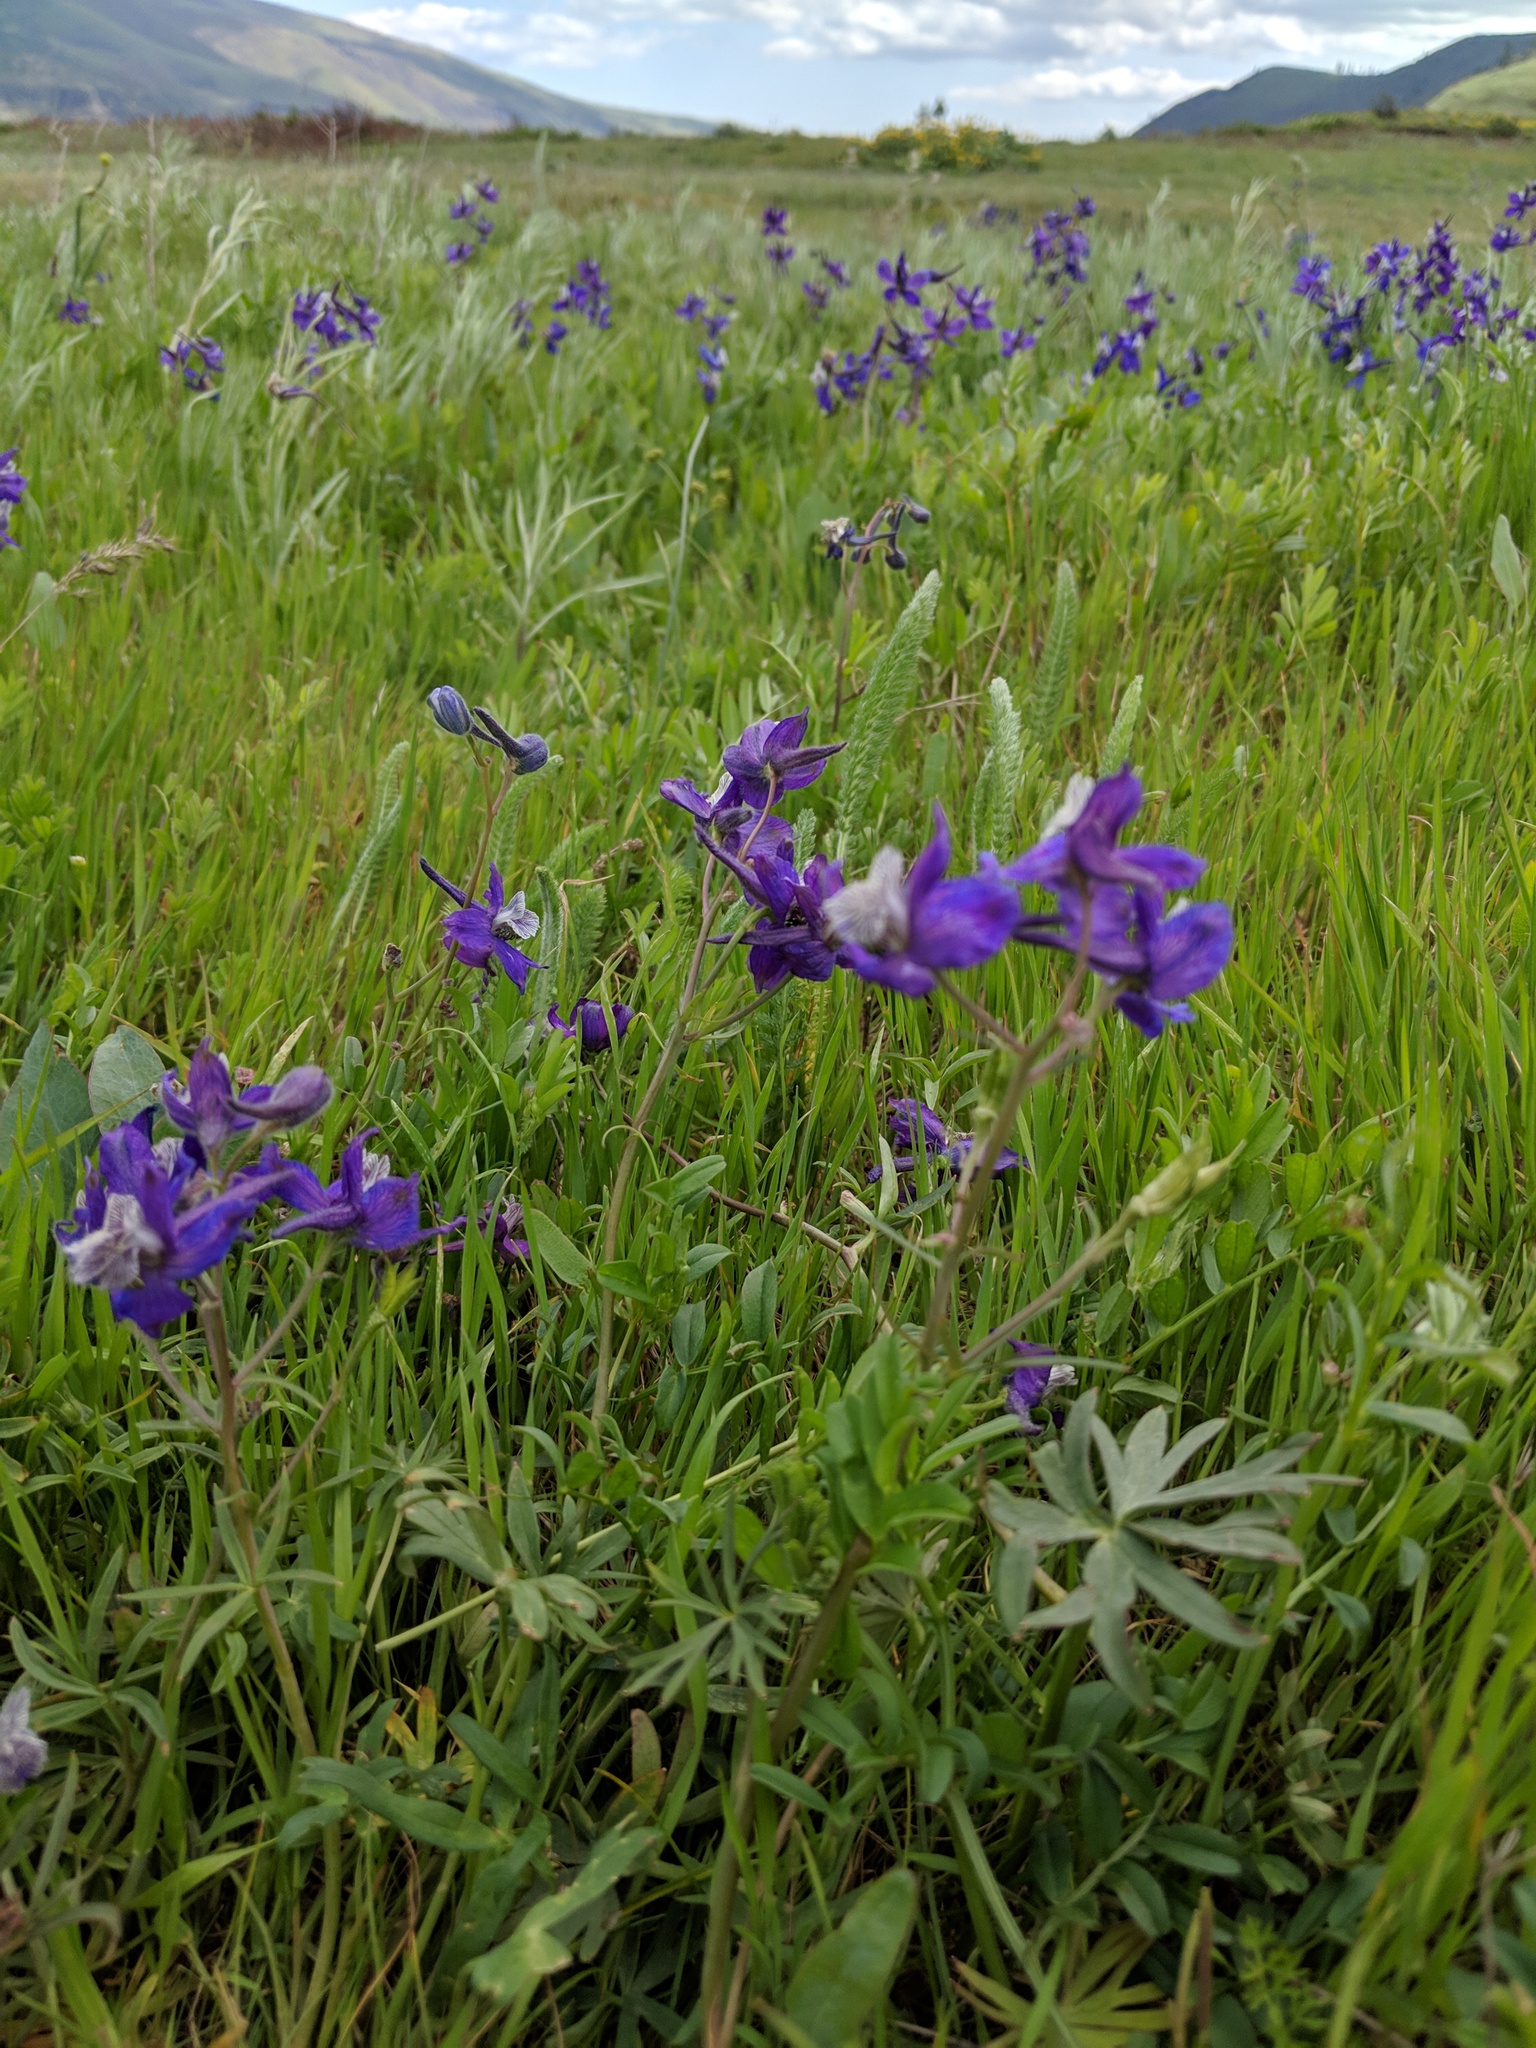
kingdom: Plantae
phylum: Tracheophyta
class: Magnoliopsida
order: Ranunculales
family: Ranunculaceae
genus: Delphinium
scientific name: Delphinium nuttallianum
